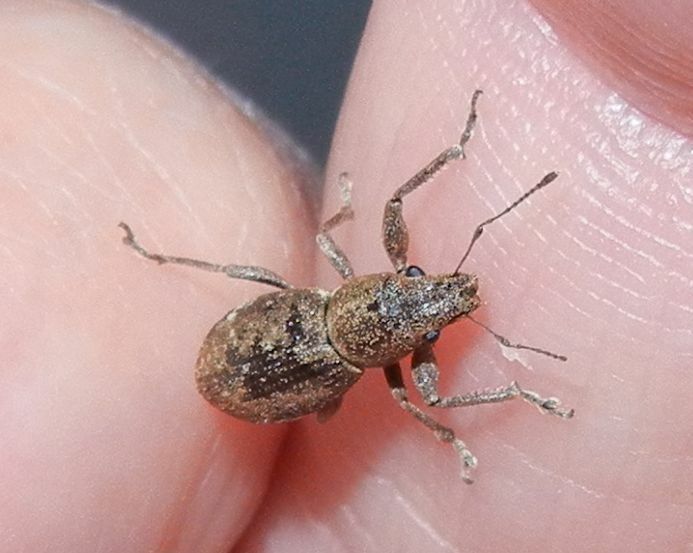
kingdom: Animalia
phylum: Arthropoda
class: Insecta
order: Coleoptera
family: Curculionidae
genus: Naupactus
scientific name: Naupactus cervinus
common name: Fuller rose beetle
